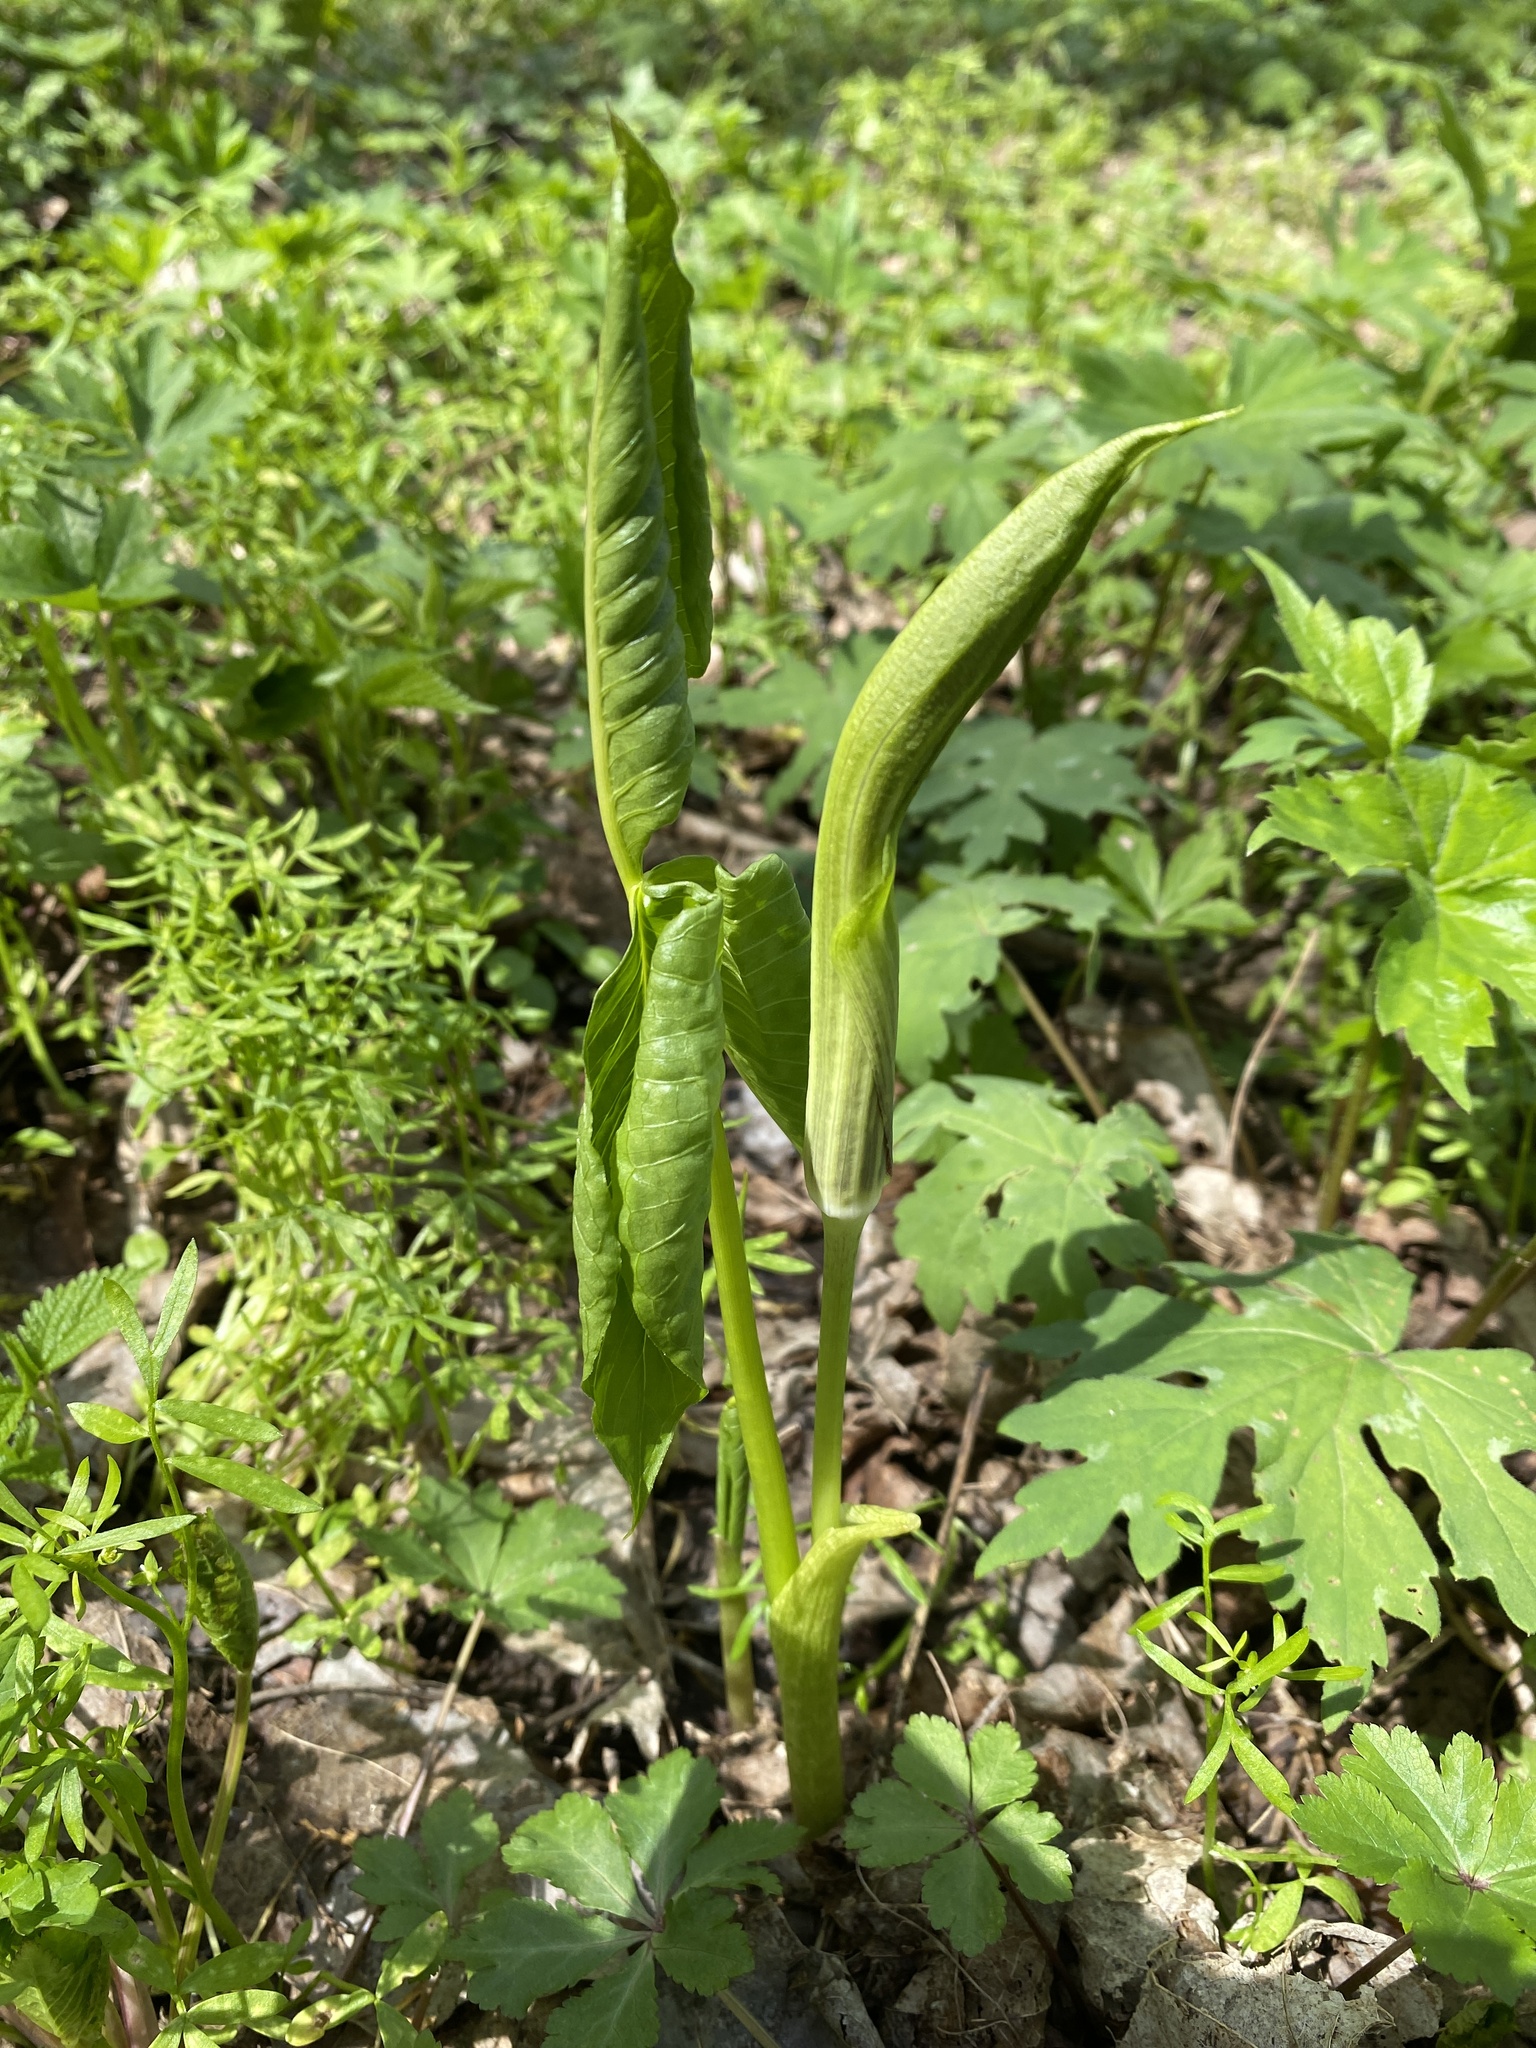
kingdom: Plantae
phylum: Tracheophyta
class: Liliopsida
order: Alismatales
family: Araceae
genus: Arisaema
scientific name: Arisaema triphyllum
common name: Jack-in-the-pulpit
